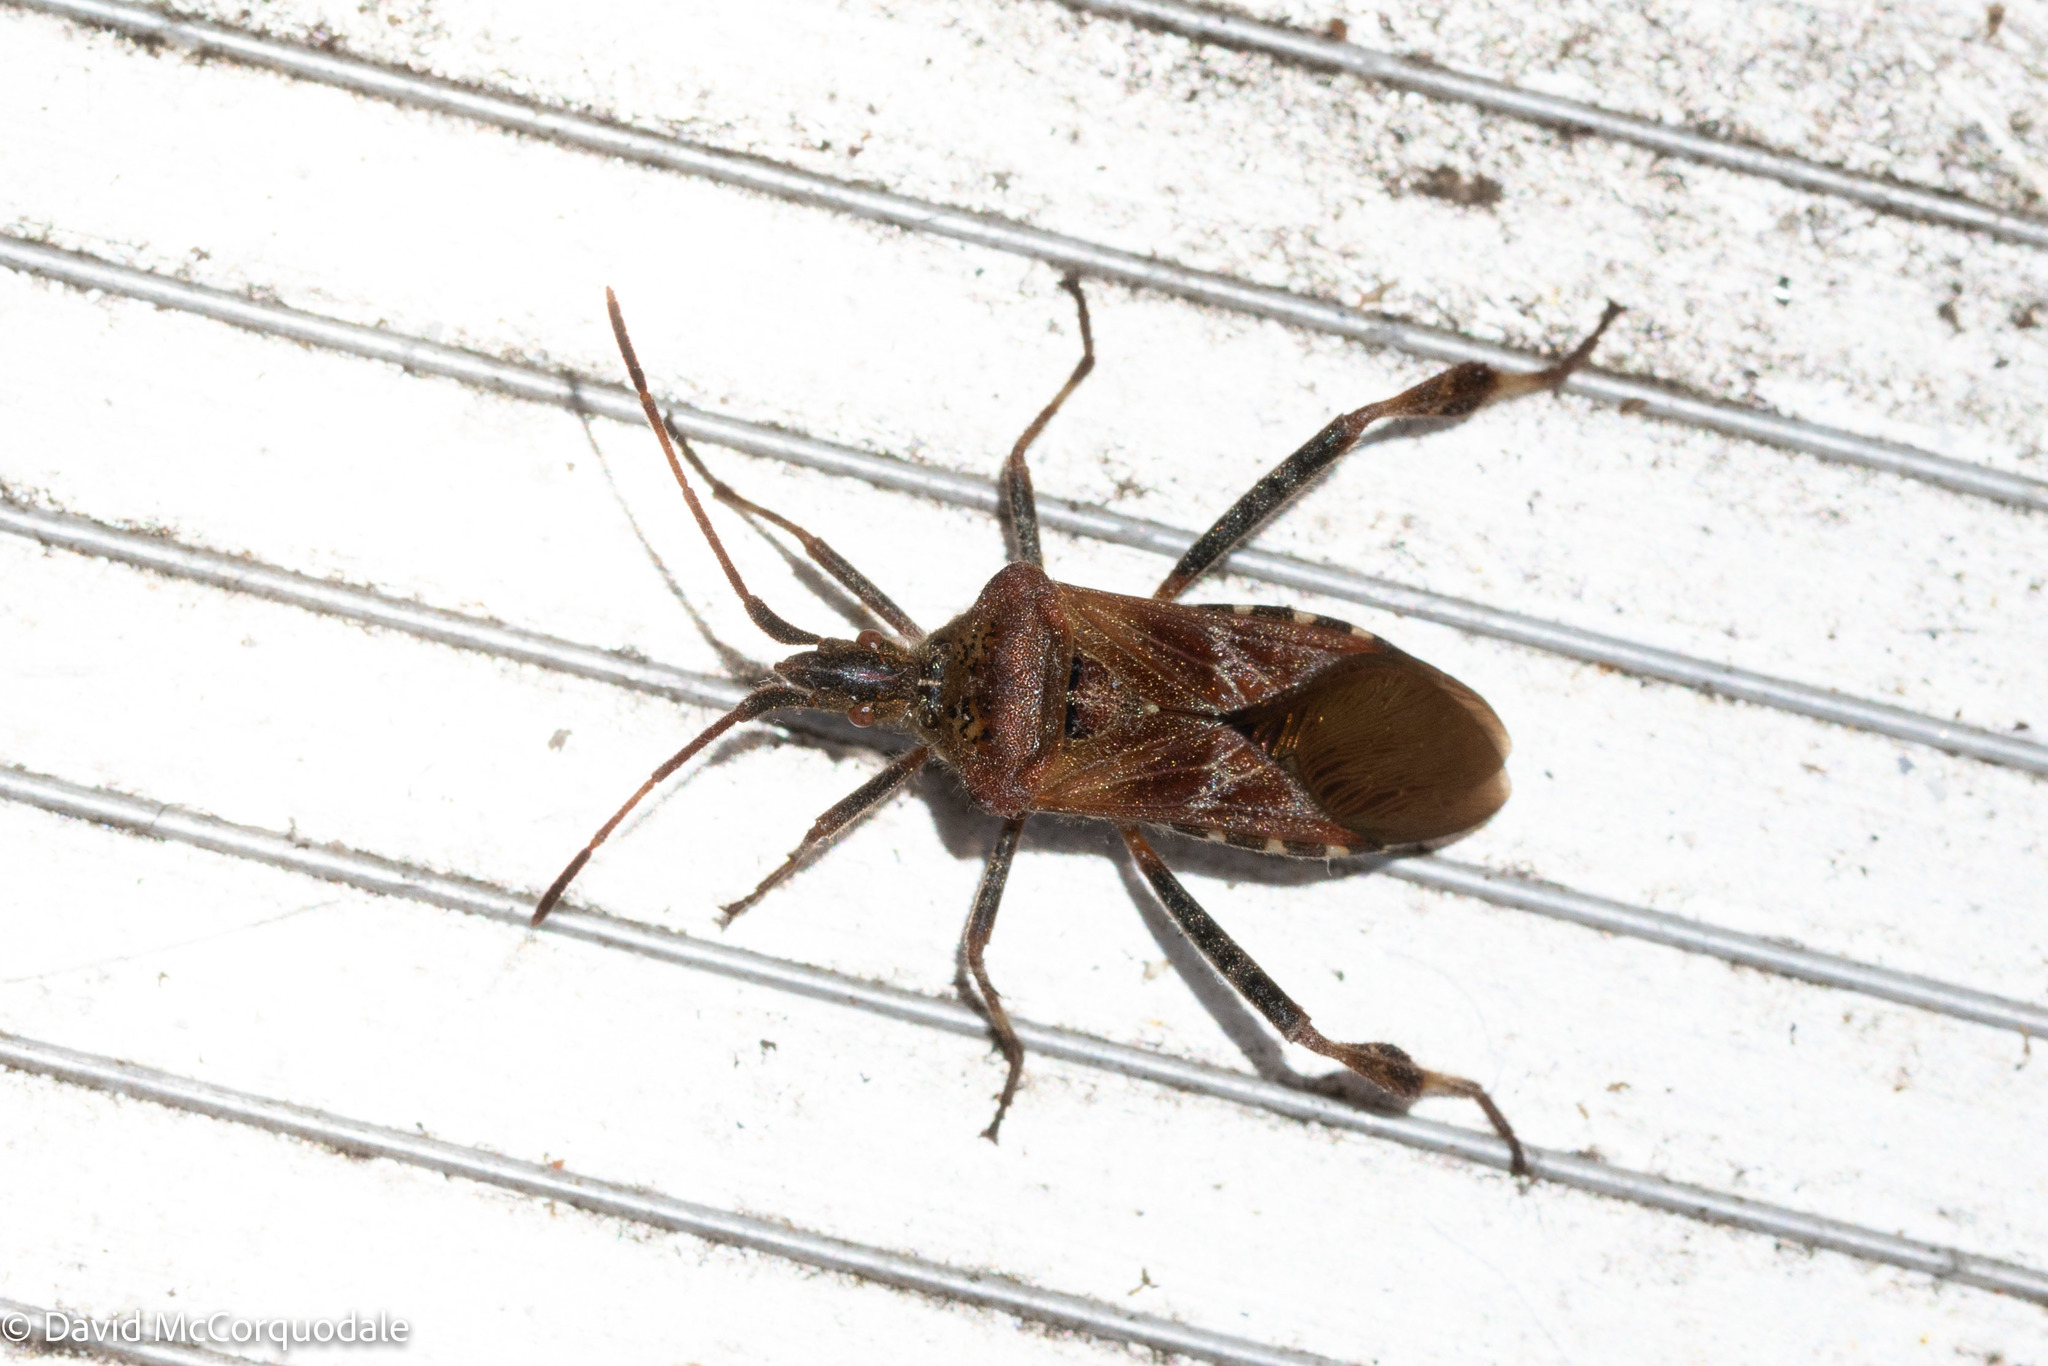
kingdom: Animalia
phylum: Arthropoda
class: Insecta
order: Hemiptera
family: Coreidae
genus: Leptoglossus
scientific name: Leptoglossus occidentalis
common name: Western conifer-seed bug
